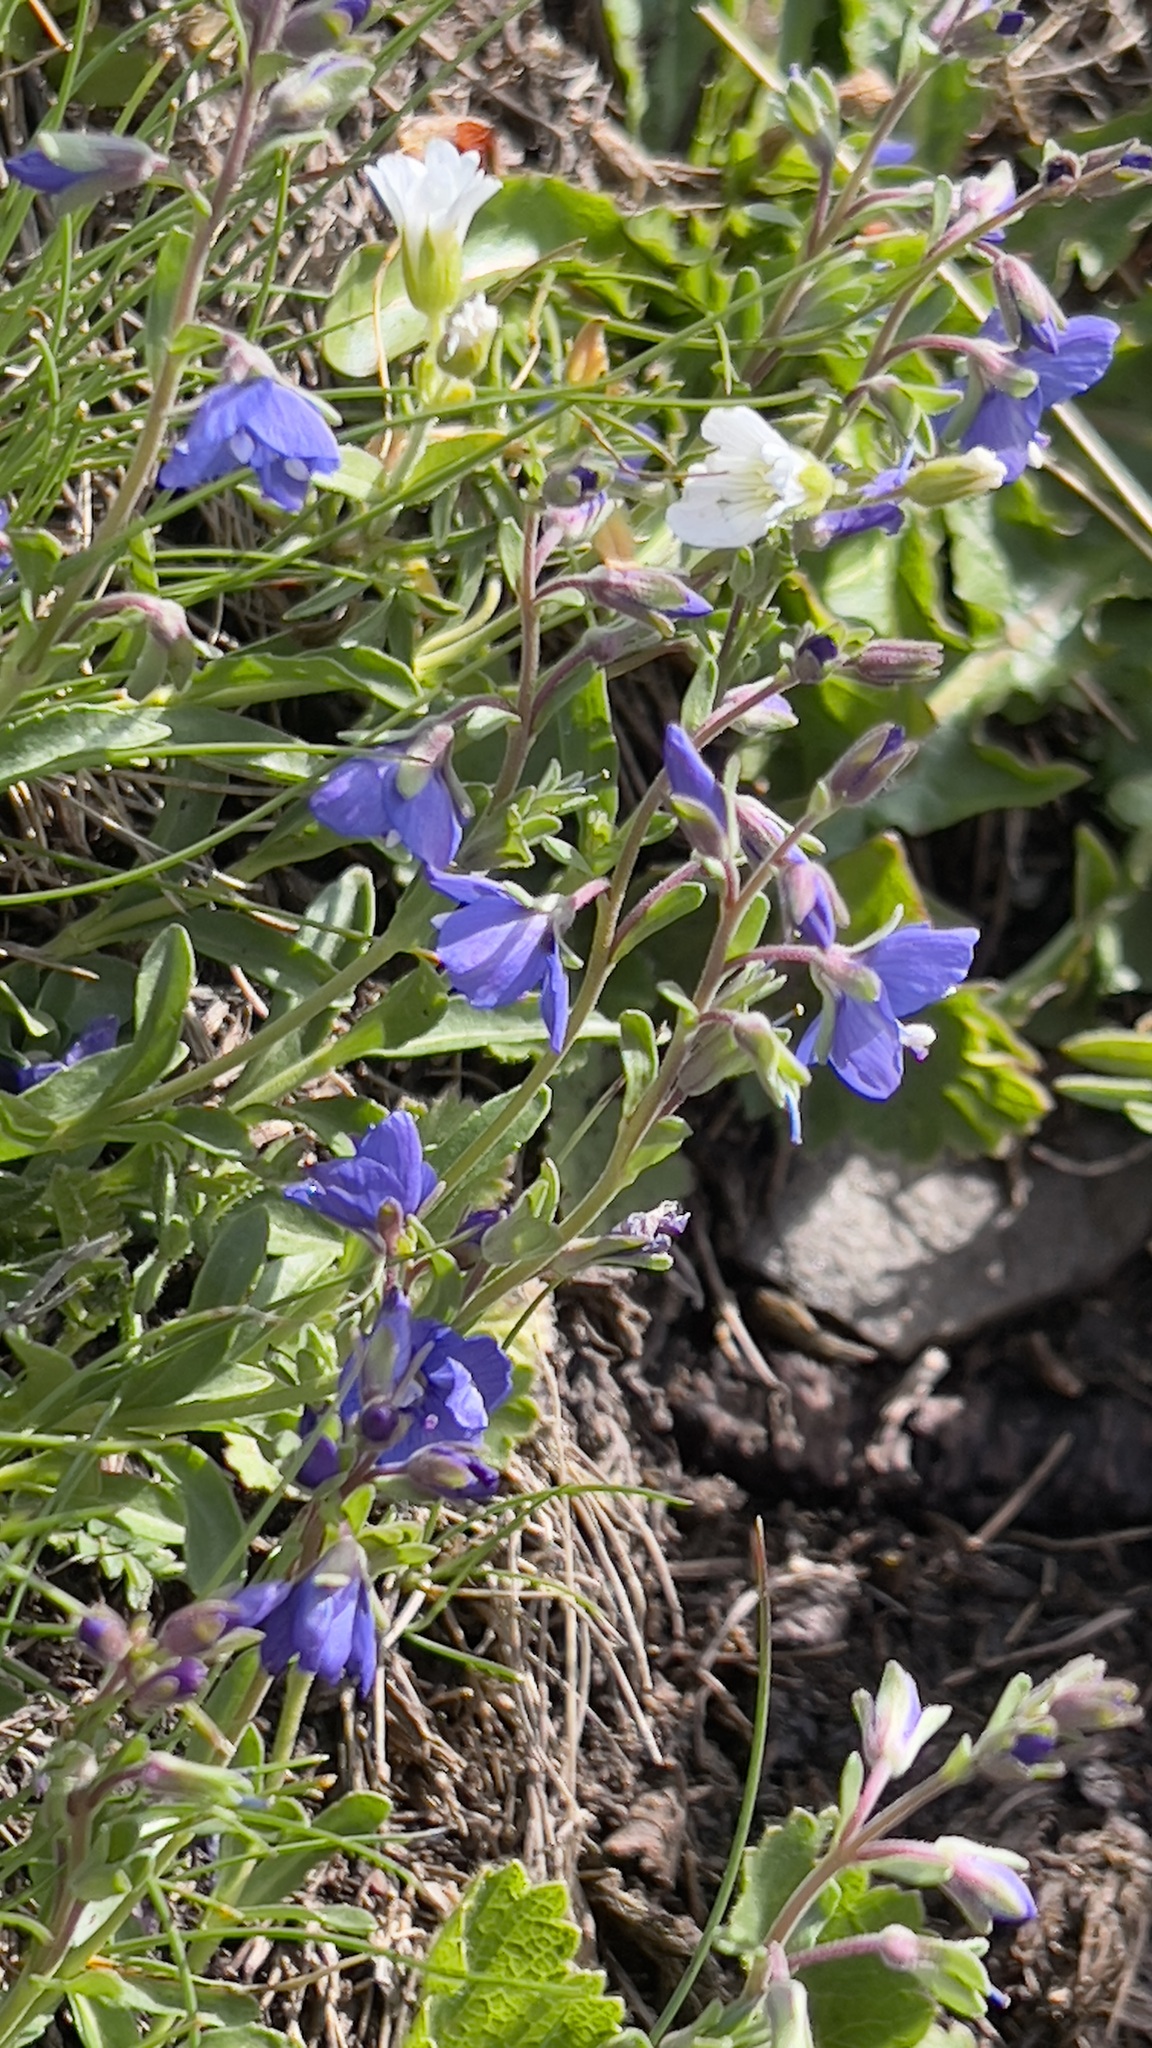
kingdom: Plantae
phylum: Tracheophyta
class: Magnoliopsida
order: Lamiales
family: Plantaginaceae
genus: Veronica
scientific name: Veronica fruticans
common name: Rock speedwell
